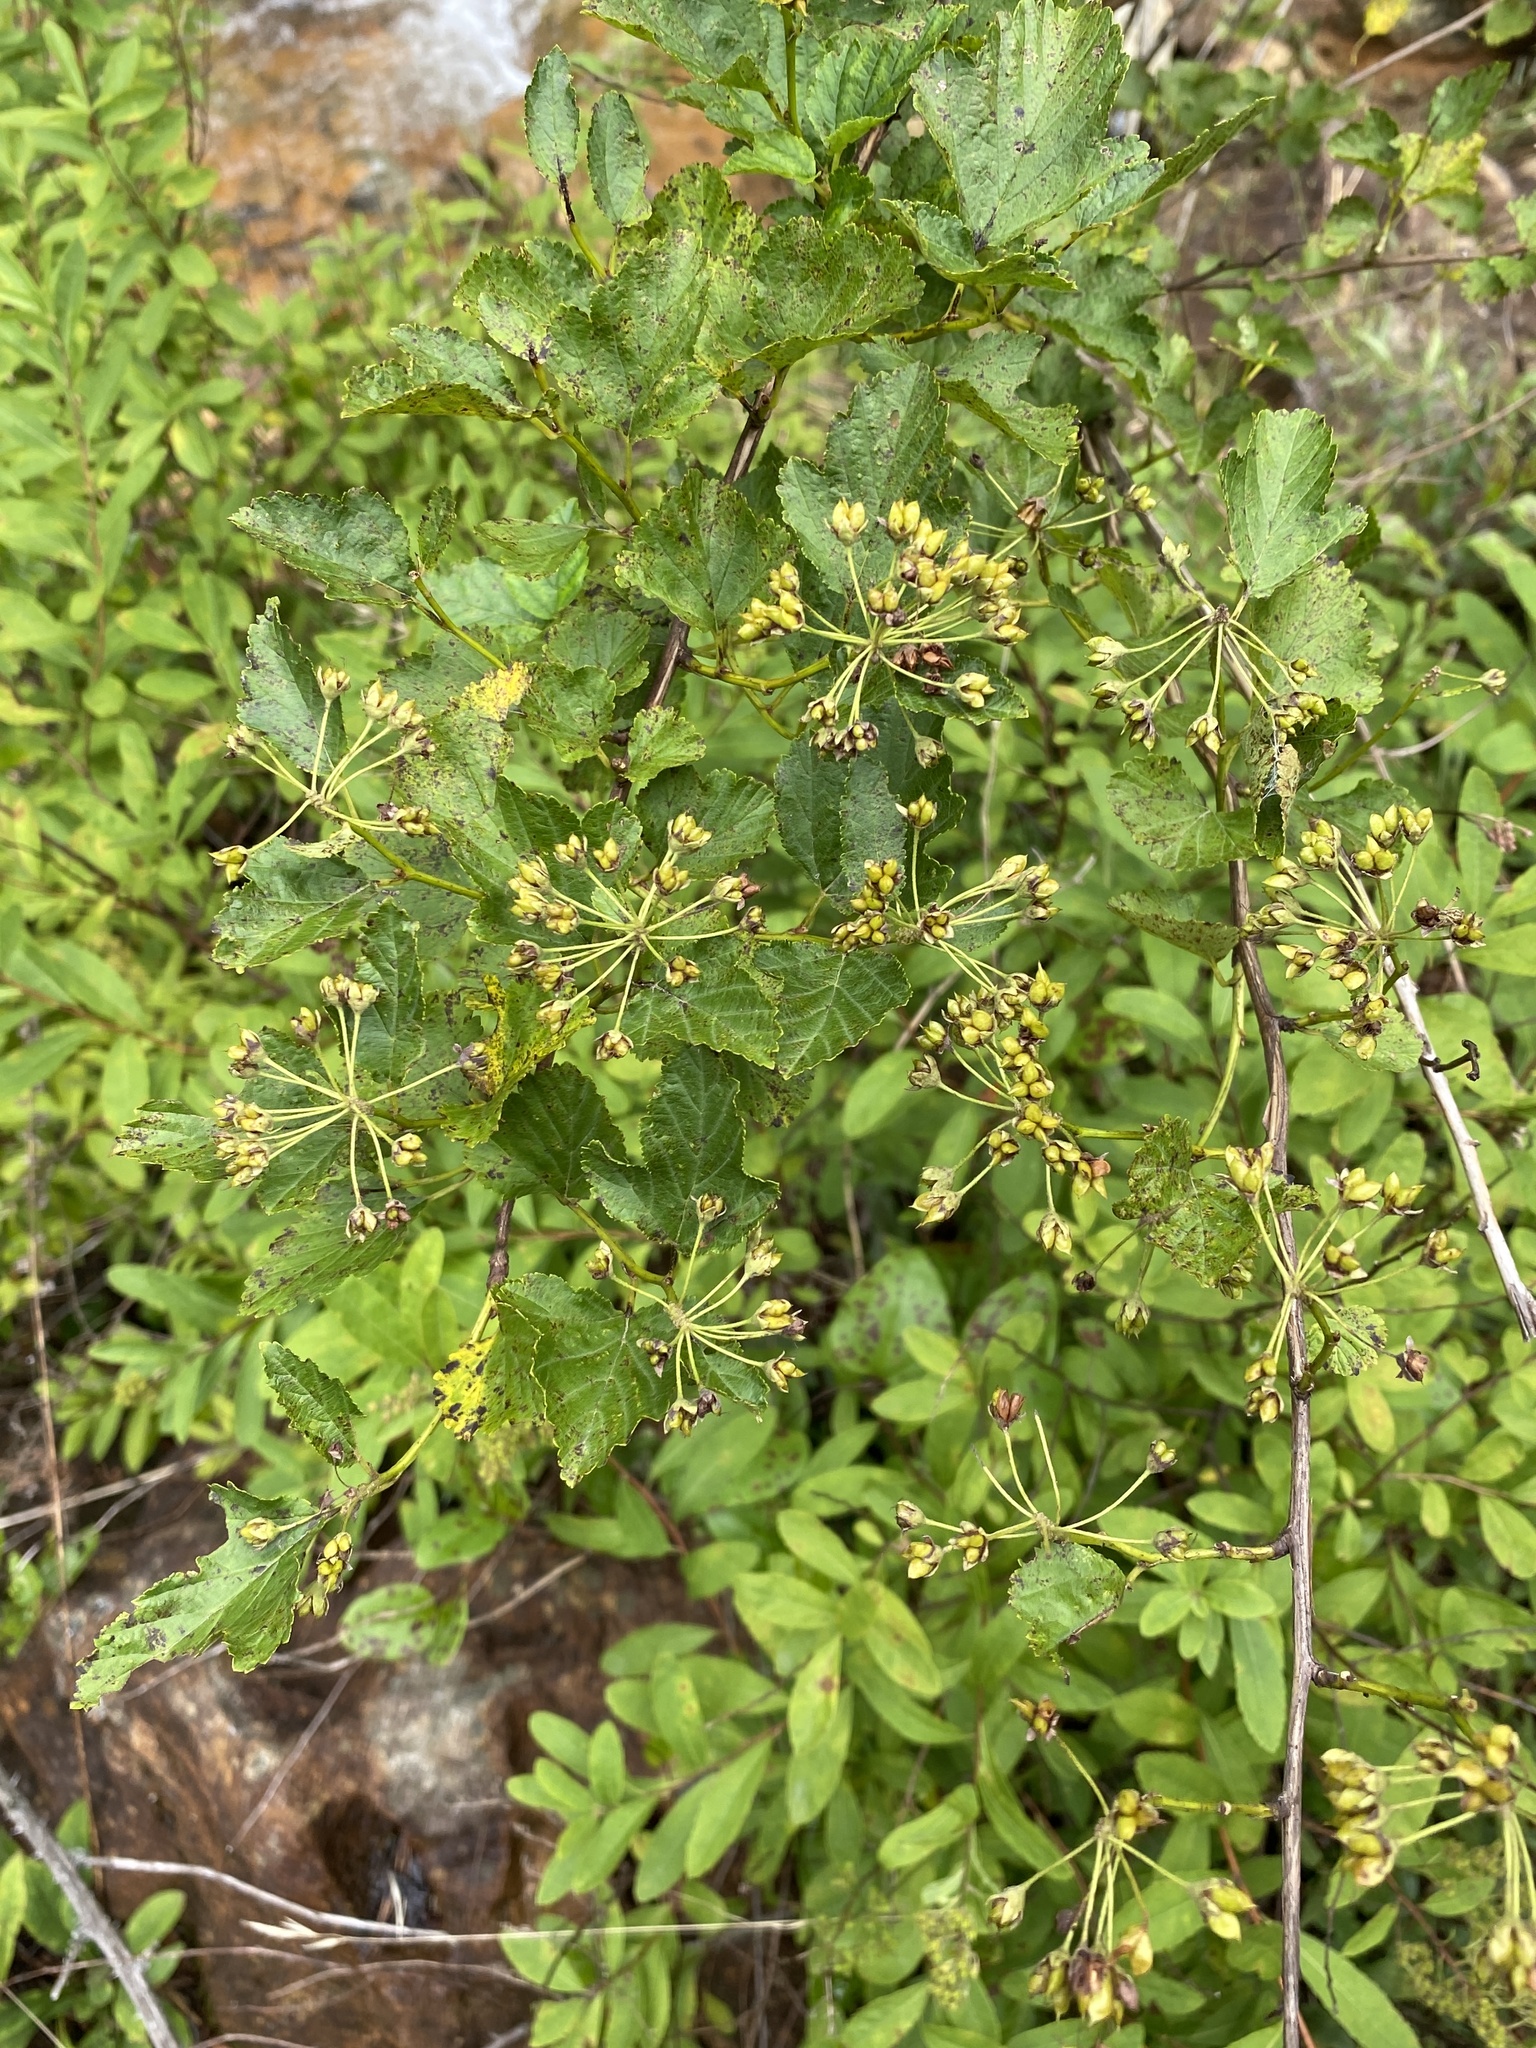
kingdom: Plantae
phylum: Tracheophyta
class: Magnoliopsida
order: Rosales
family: Rosaceae
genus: Physocarpus
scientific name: Physocarpus opulifolius
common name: Ninebark
